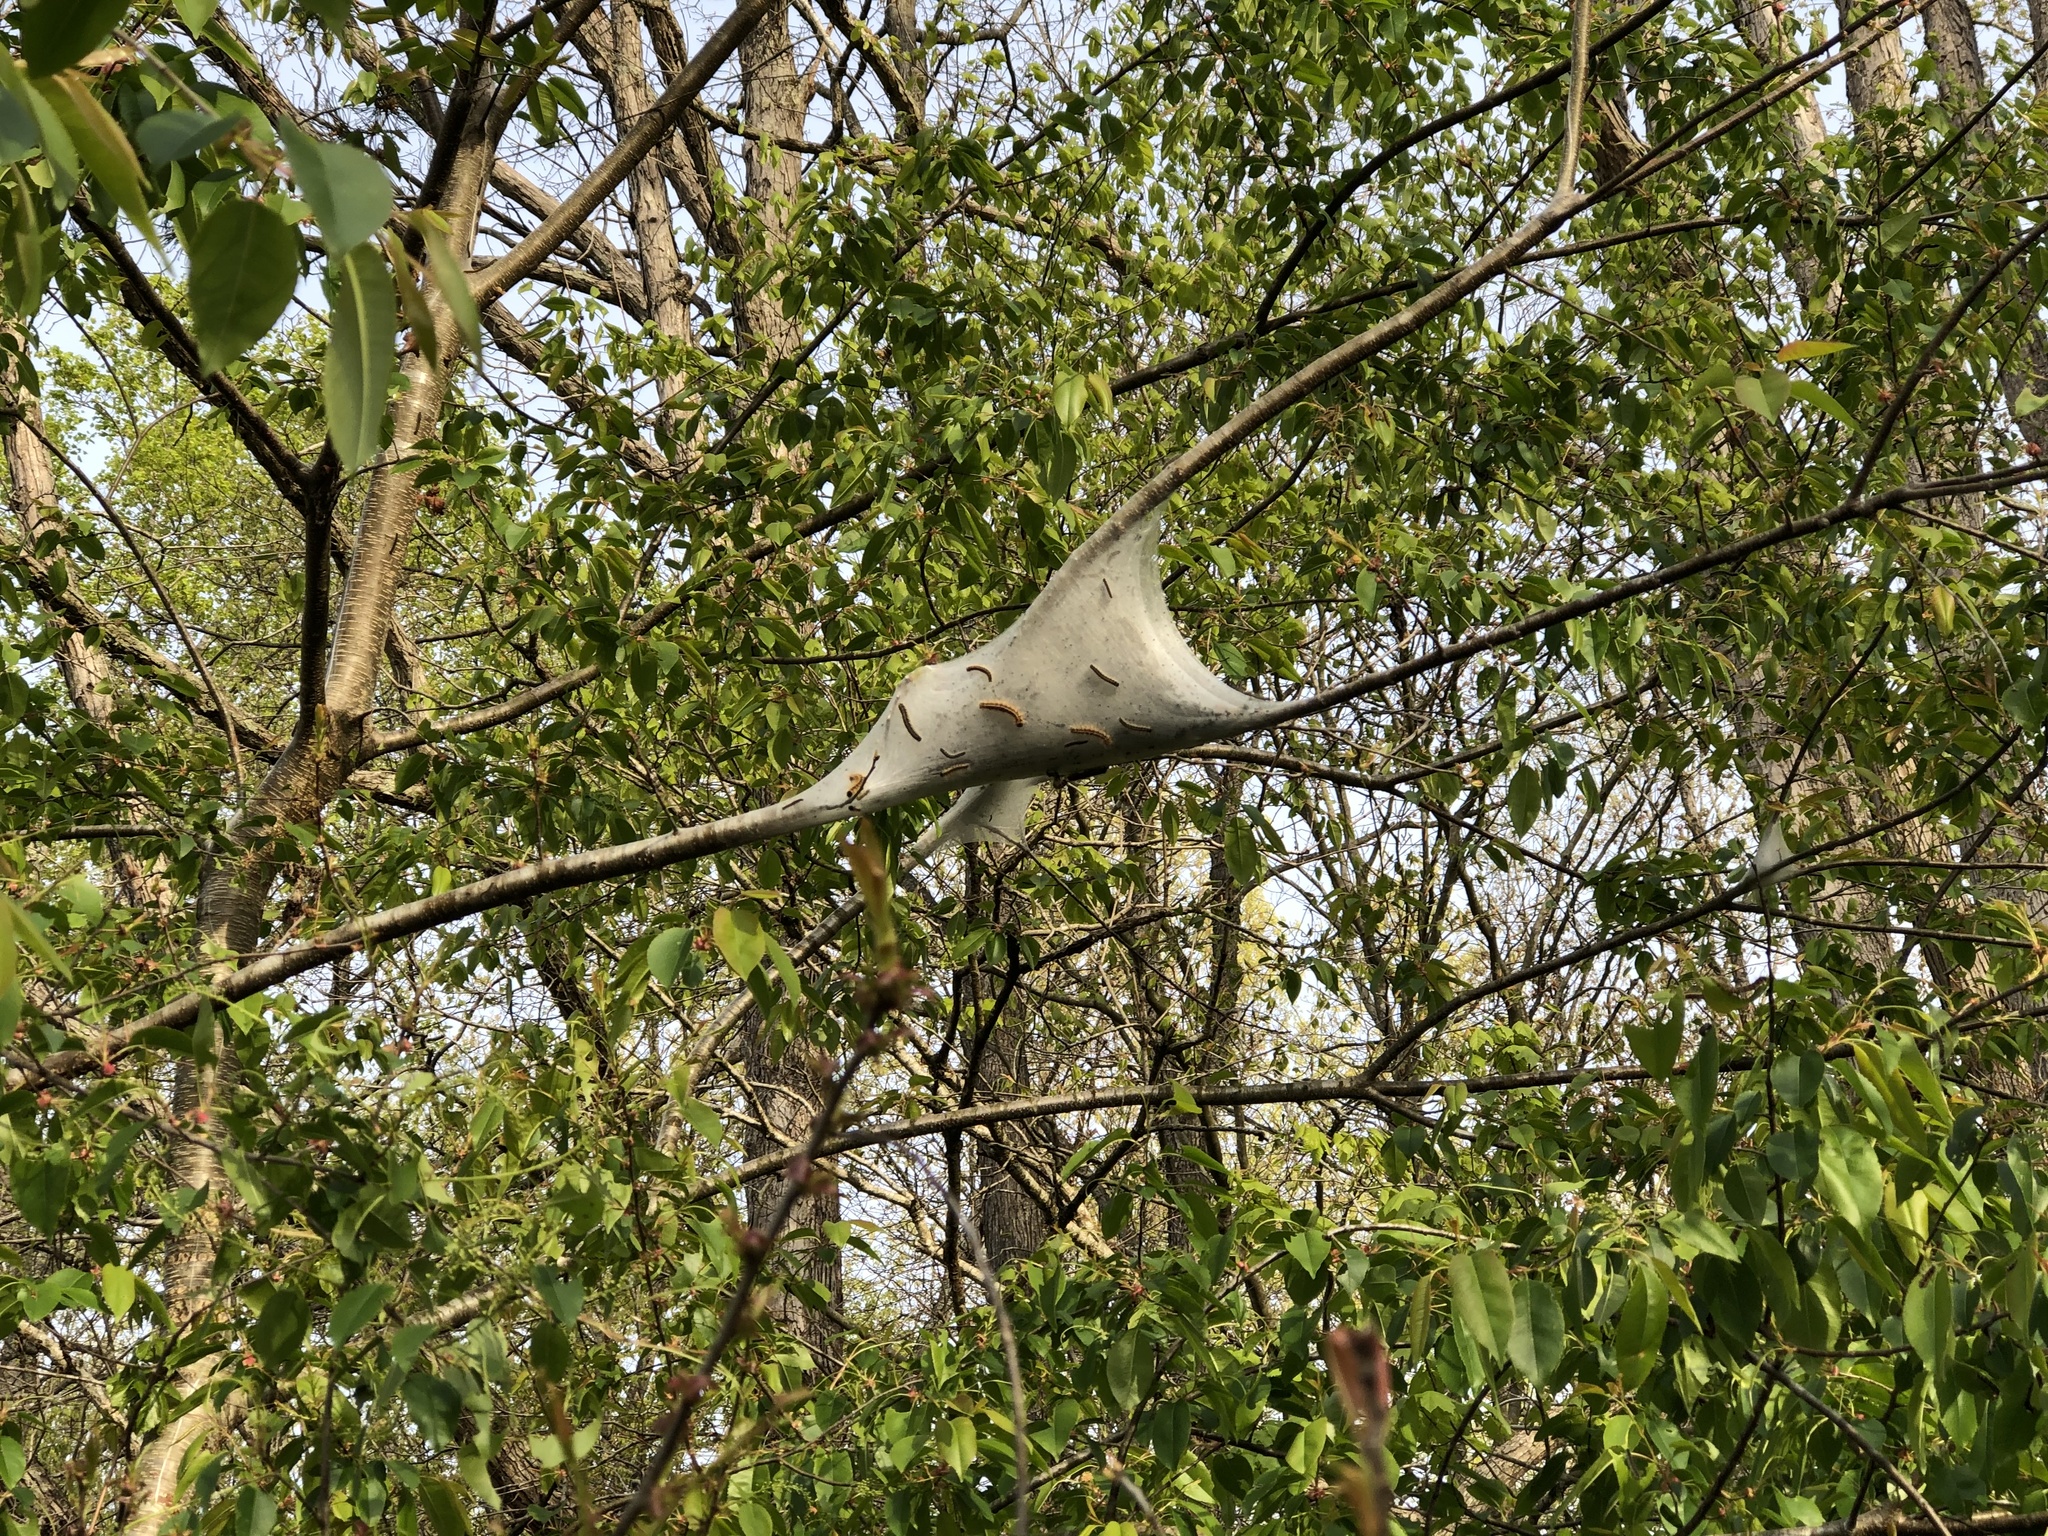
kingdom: Animalia
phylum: Arthropoda
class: Insecta
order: Lepidoptera
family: Lasiocampidae
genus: Malacosoma
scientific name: Malacosoma americana
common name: Eastern tent caterpillar moth
